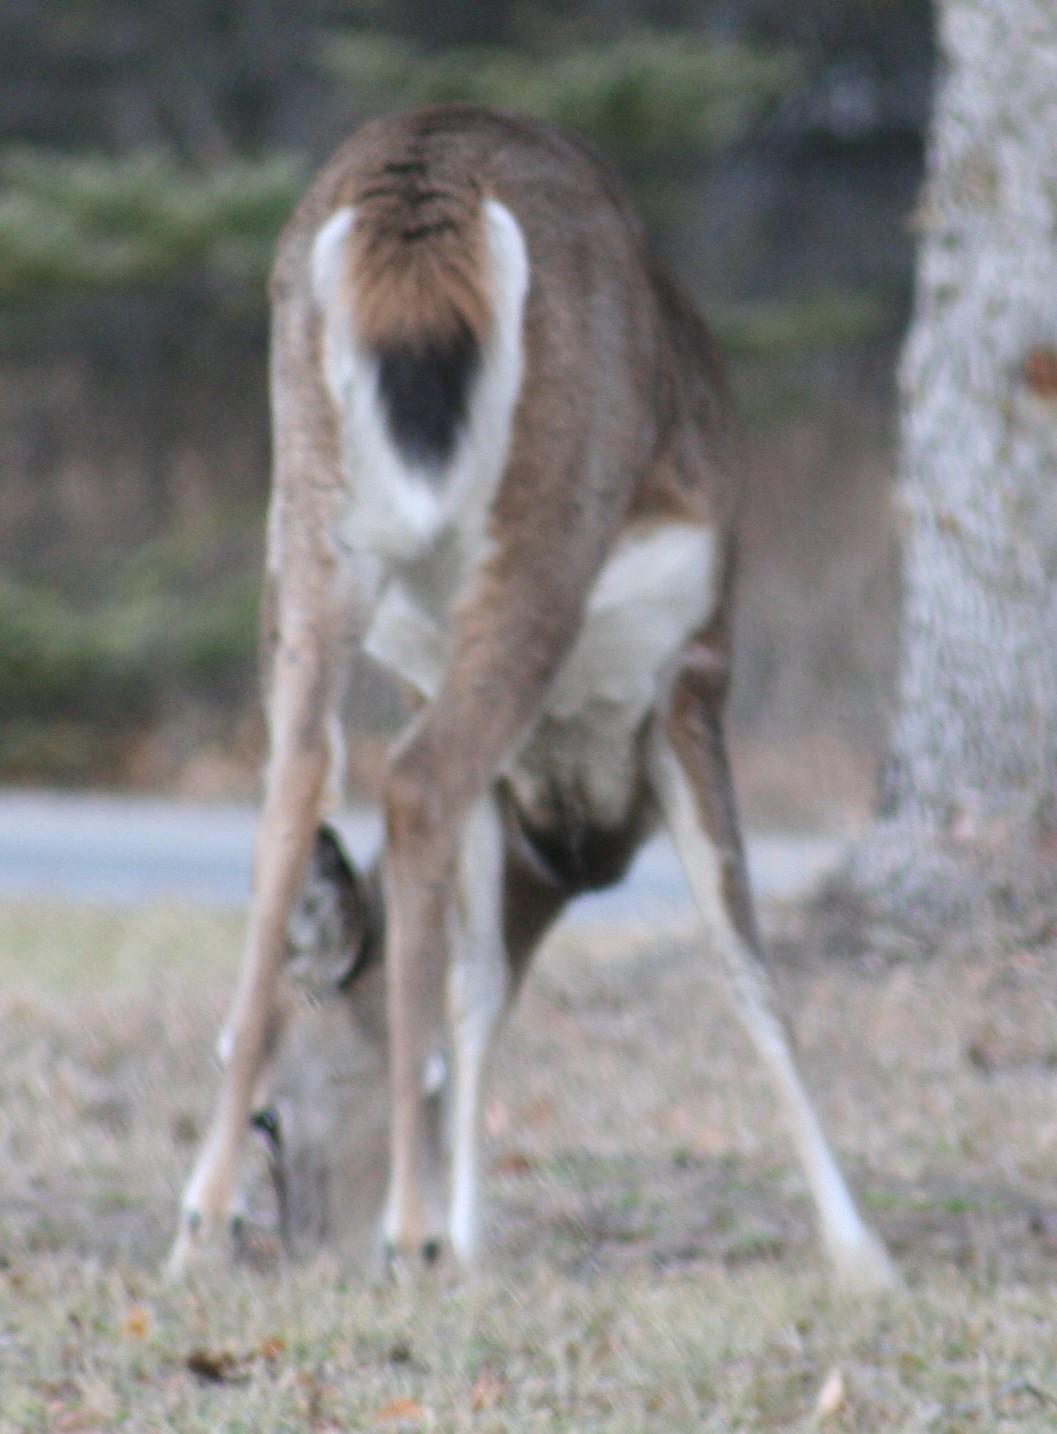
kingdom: Animalia
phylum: Chordata
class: Mammalia
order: Artiodactyla
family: Cervidae
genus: Odocoileus
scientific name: Odocoileus virginianus
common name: White-tailed deer
